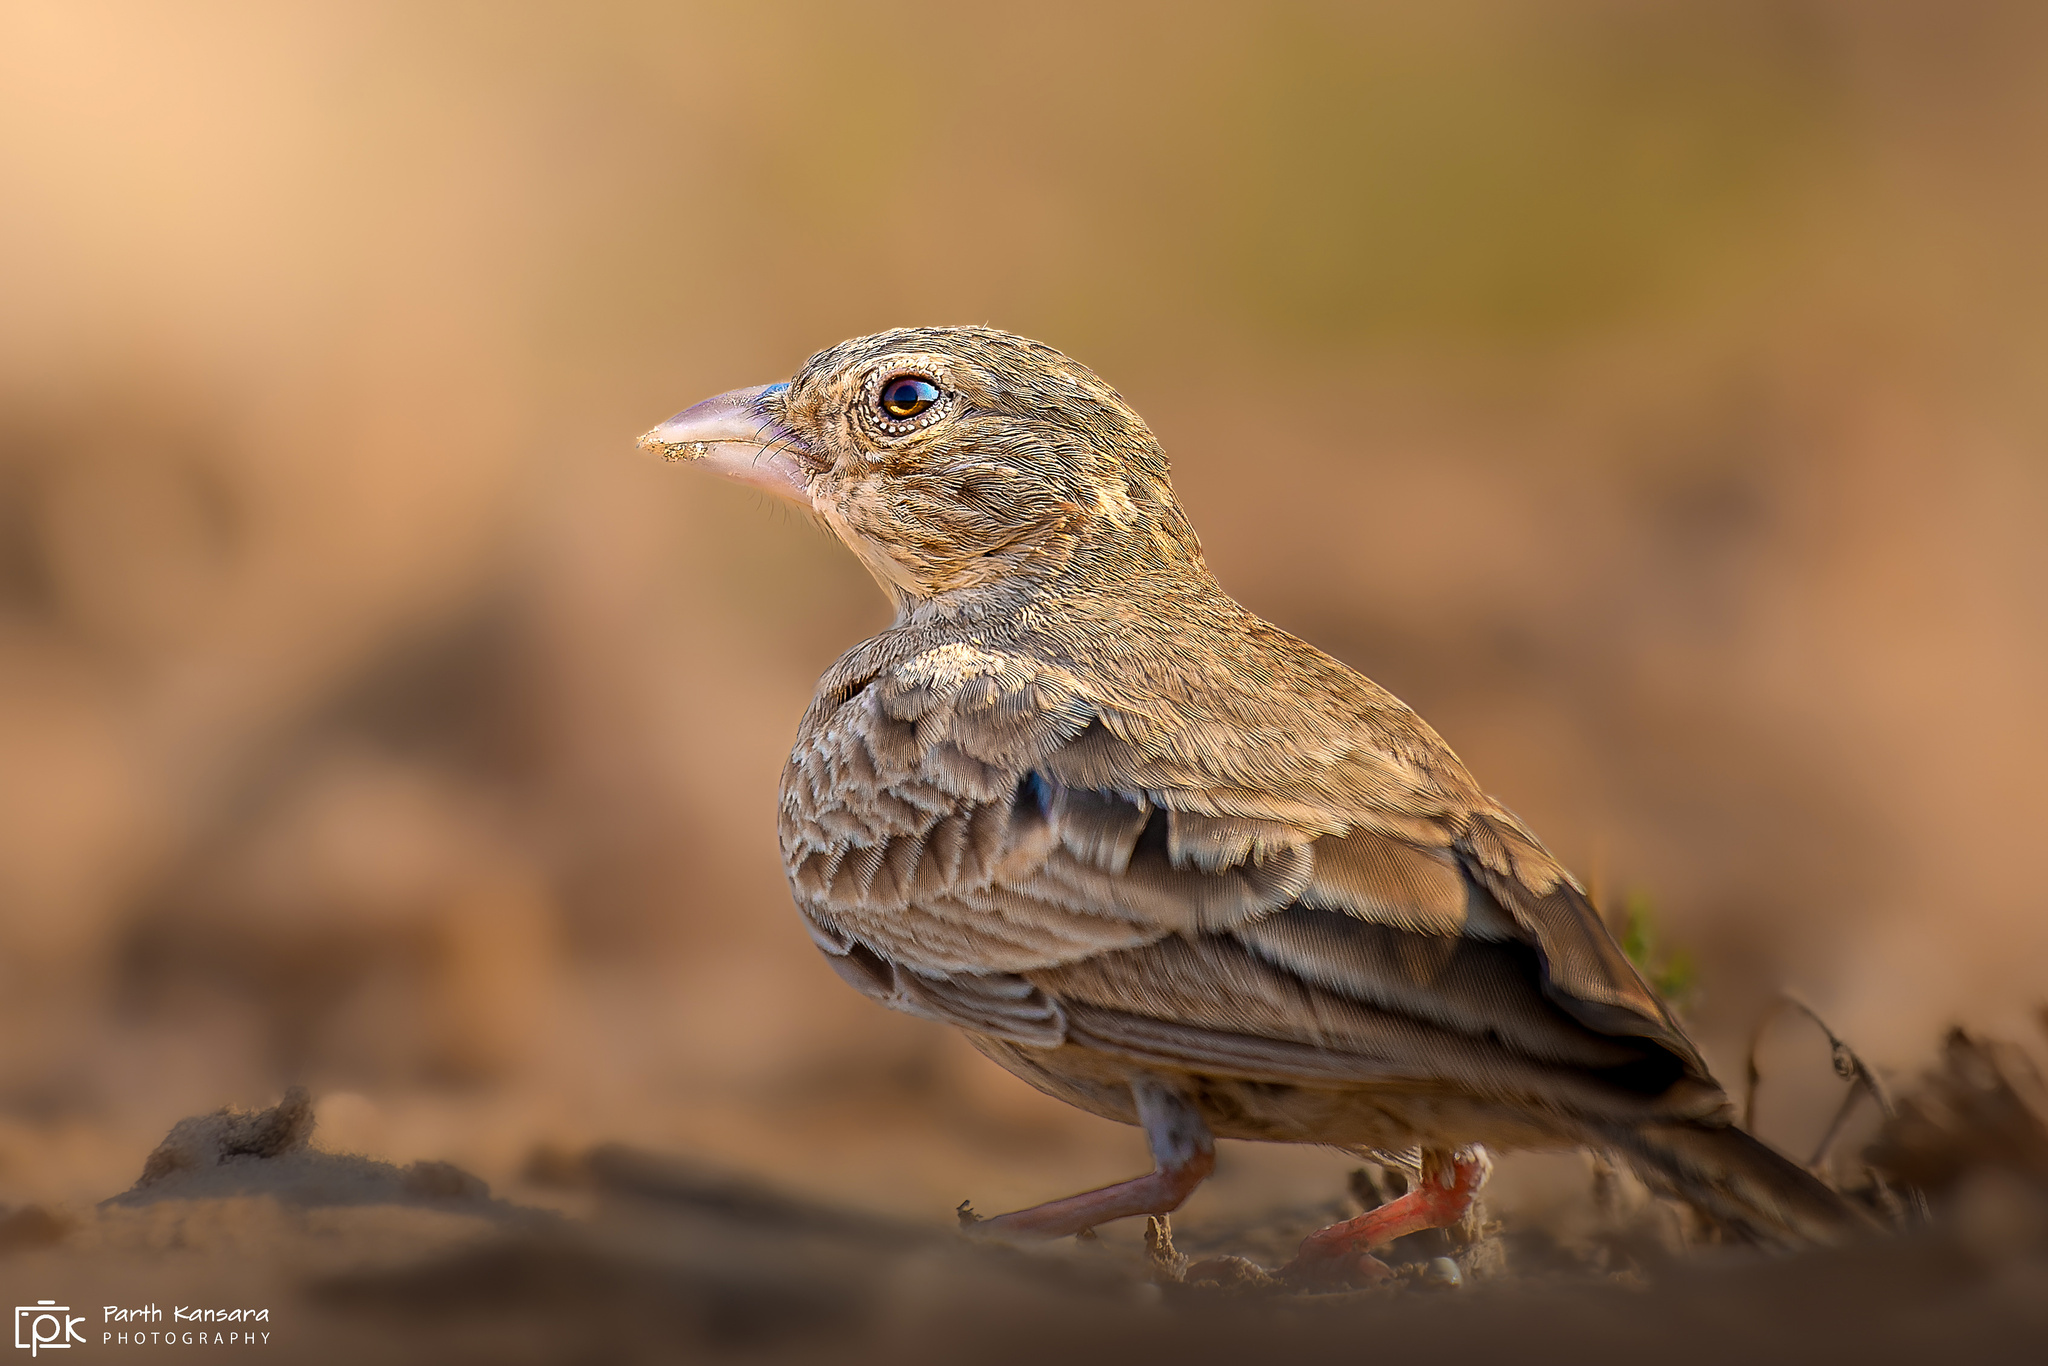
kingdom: Animalia
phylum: Chordata
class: Aves
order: Passeriformes
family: Alaudidae
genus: Eremopterix
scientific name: Eremopterix griseus
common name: Ashy-crowned sparrow-lark
